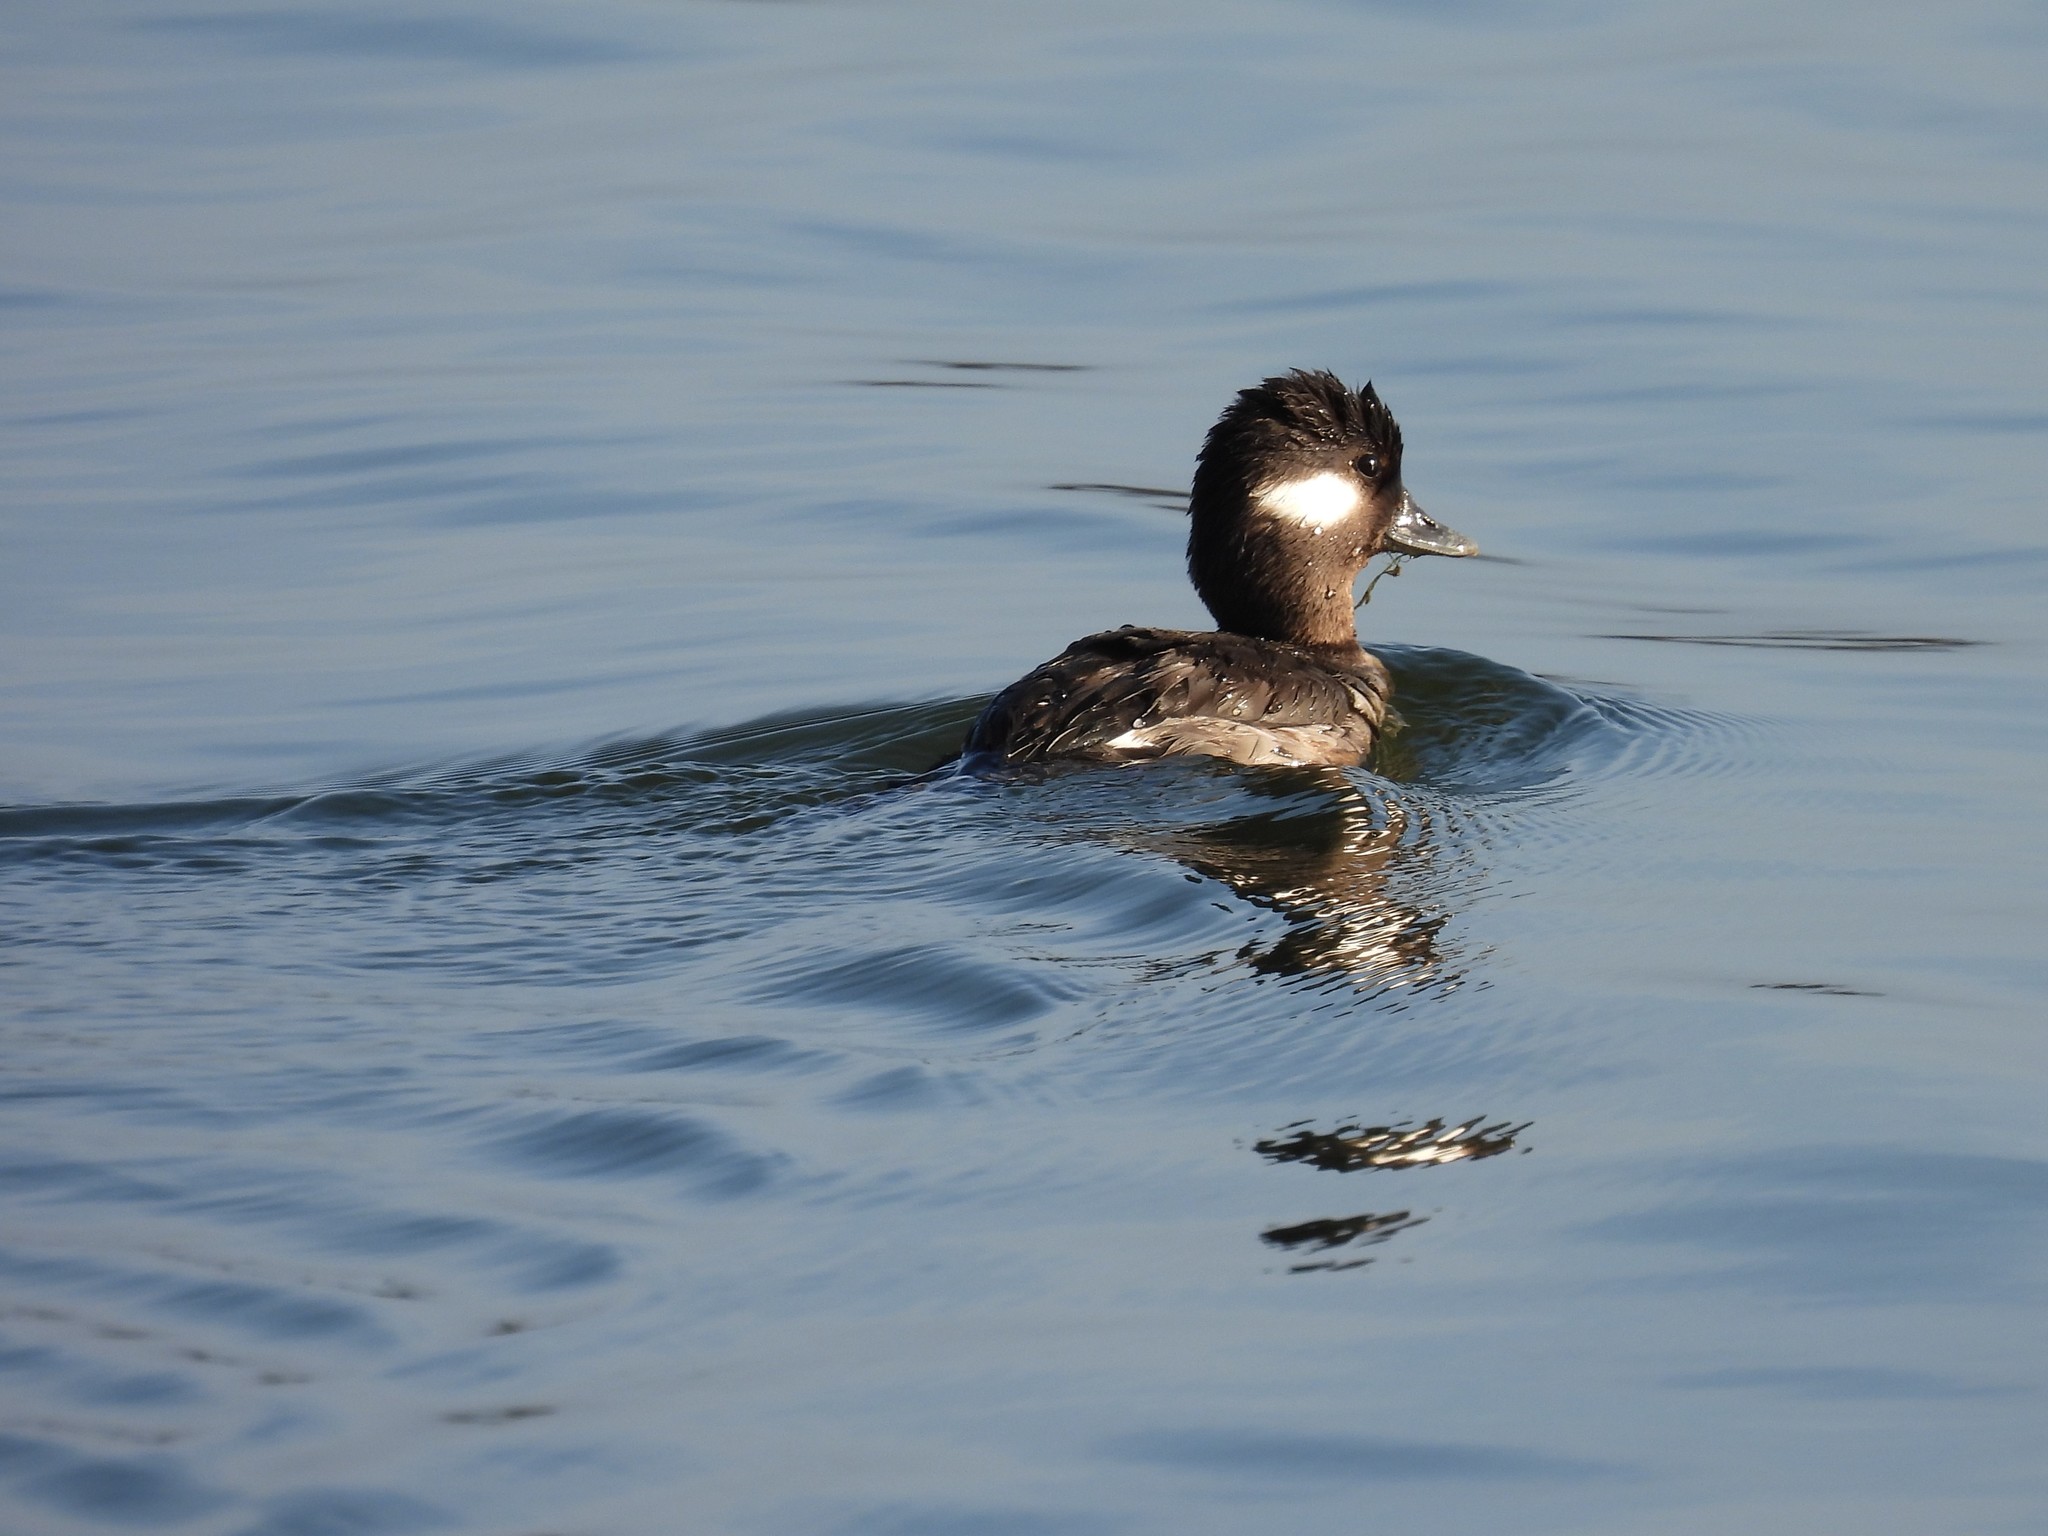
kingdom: Animalia
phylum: Chordata
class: Aves
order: Anseriformes
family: Anatidae
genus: Bucephala
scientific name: Bucephala albeola
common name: Bufflehead
